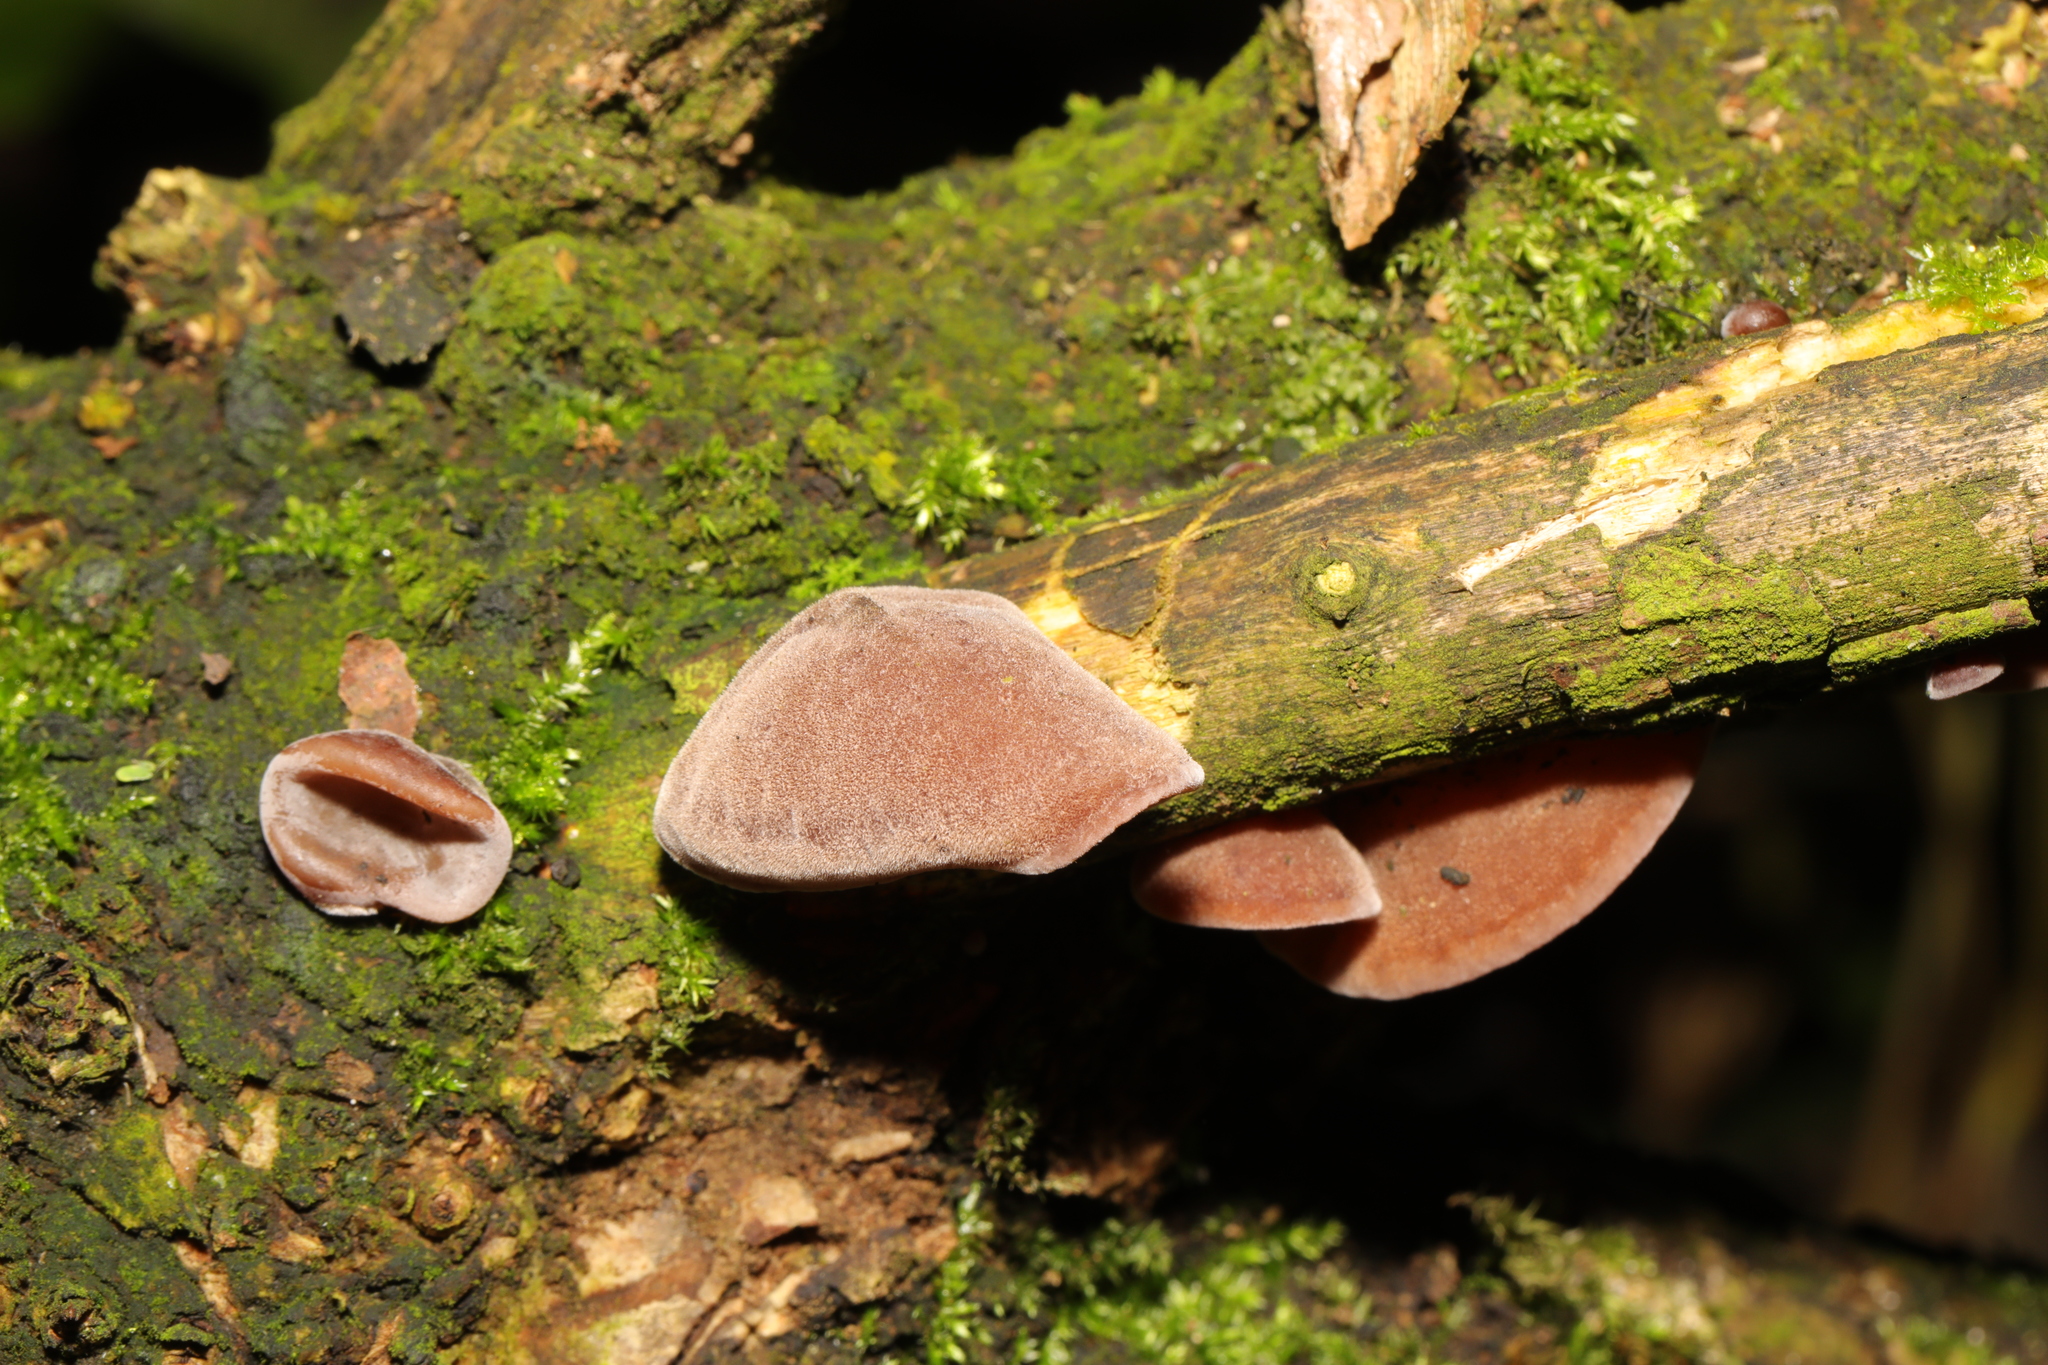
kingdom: Fungi
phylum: Basidiomycota
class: Agaricomycetes
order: Auriculariales
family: Auriculariaceae
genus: Auricularia
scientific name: Auricularia auricula-judae
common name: Jelly ear
